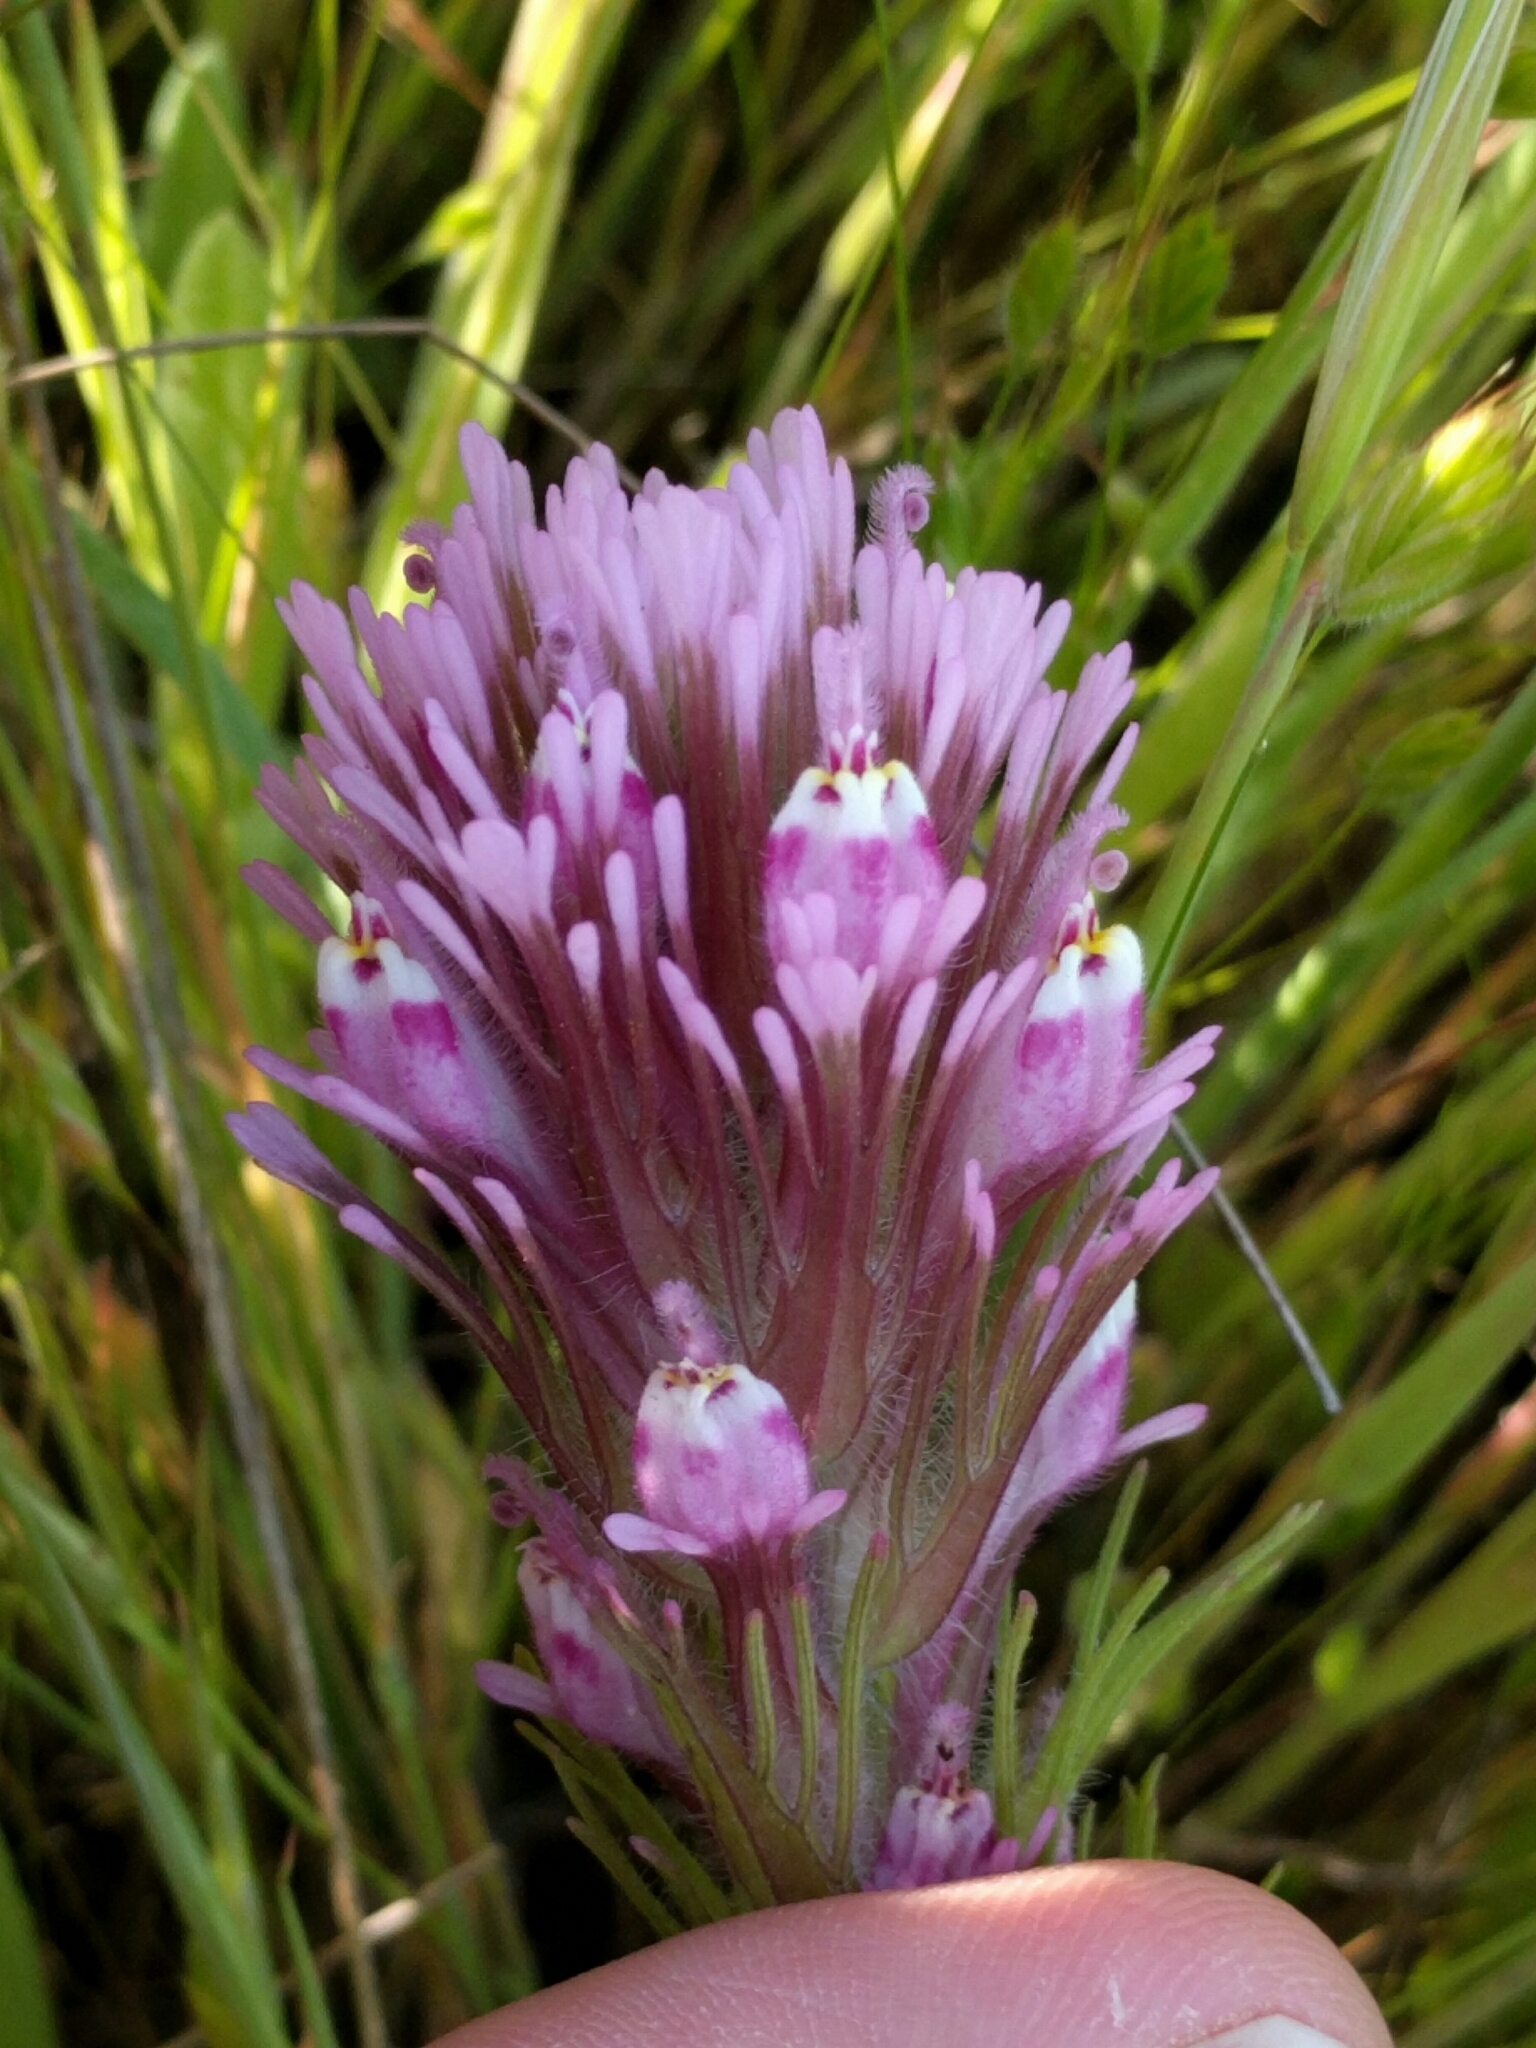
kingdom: Plantae
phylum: Tracheophyta
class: Magnoliopsida
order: Lamiales
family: Orobanchaceae
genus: Castilleja
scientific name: Castilleja exserta
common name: Purple owl-clover
